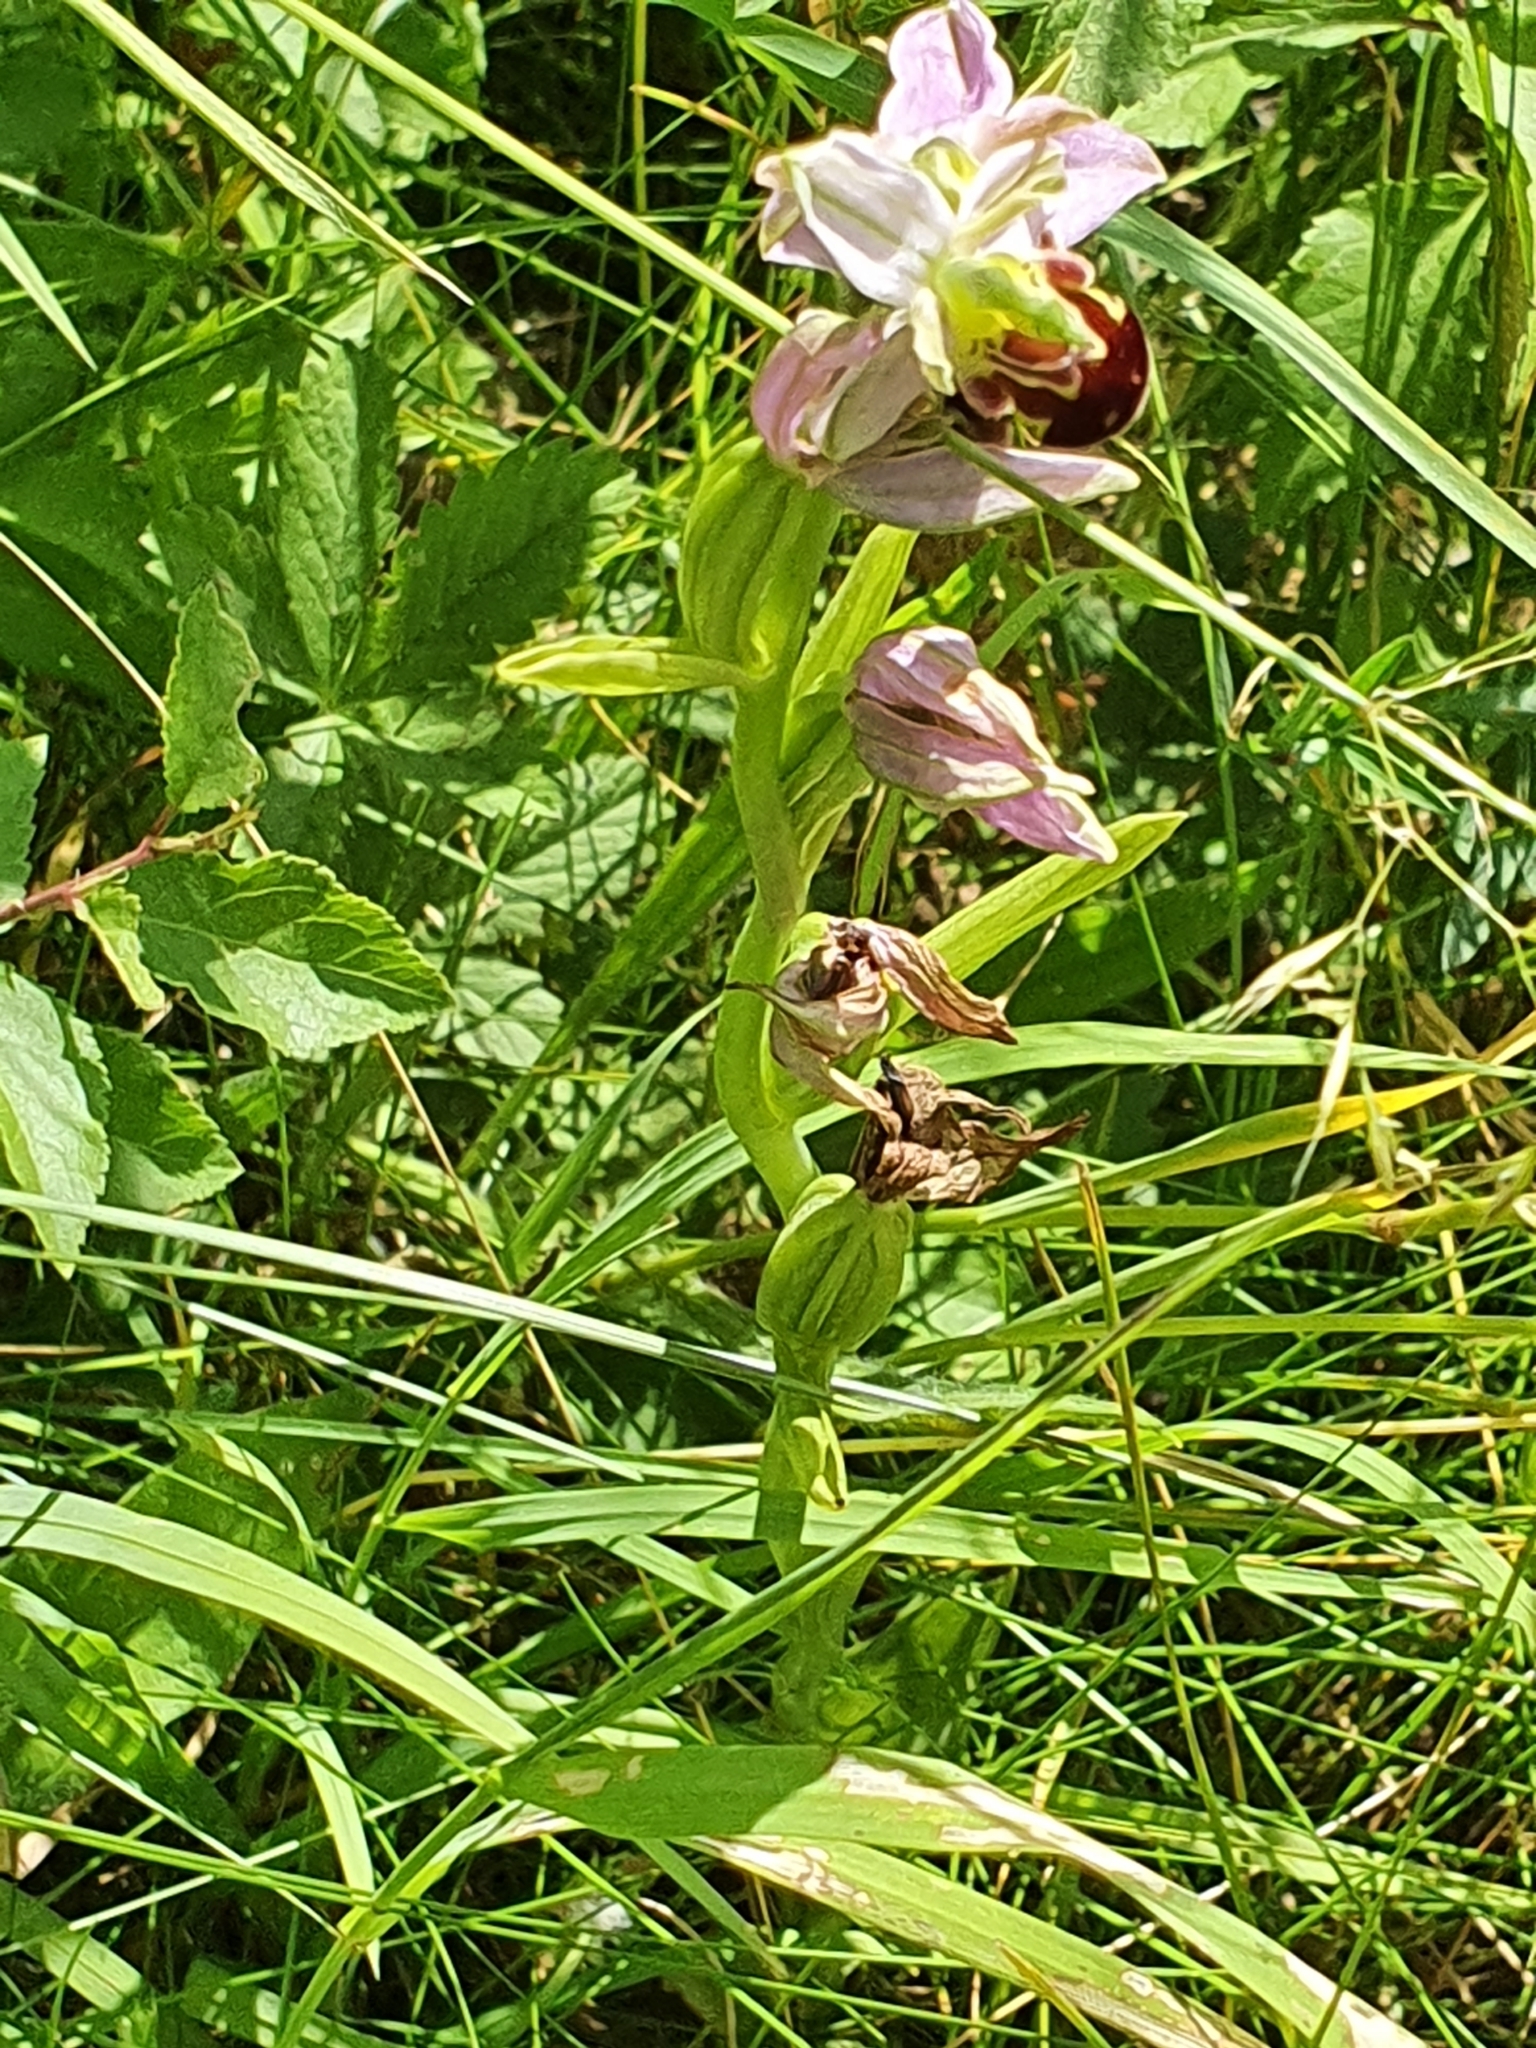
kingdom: Plantae
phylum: Tracheophyta
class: Liliopsida
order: Asparagales
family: Orchidaceae
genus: Ophrys
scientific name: Ophrys apifera
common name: Bee orchid
